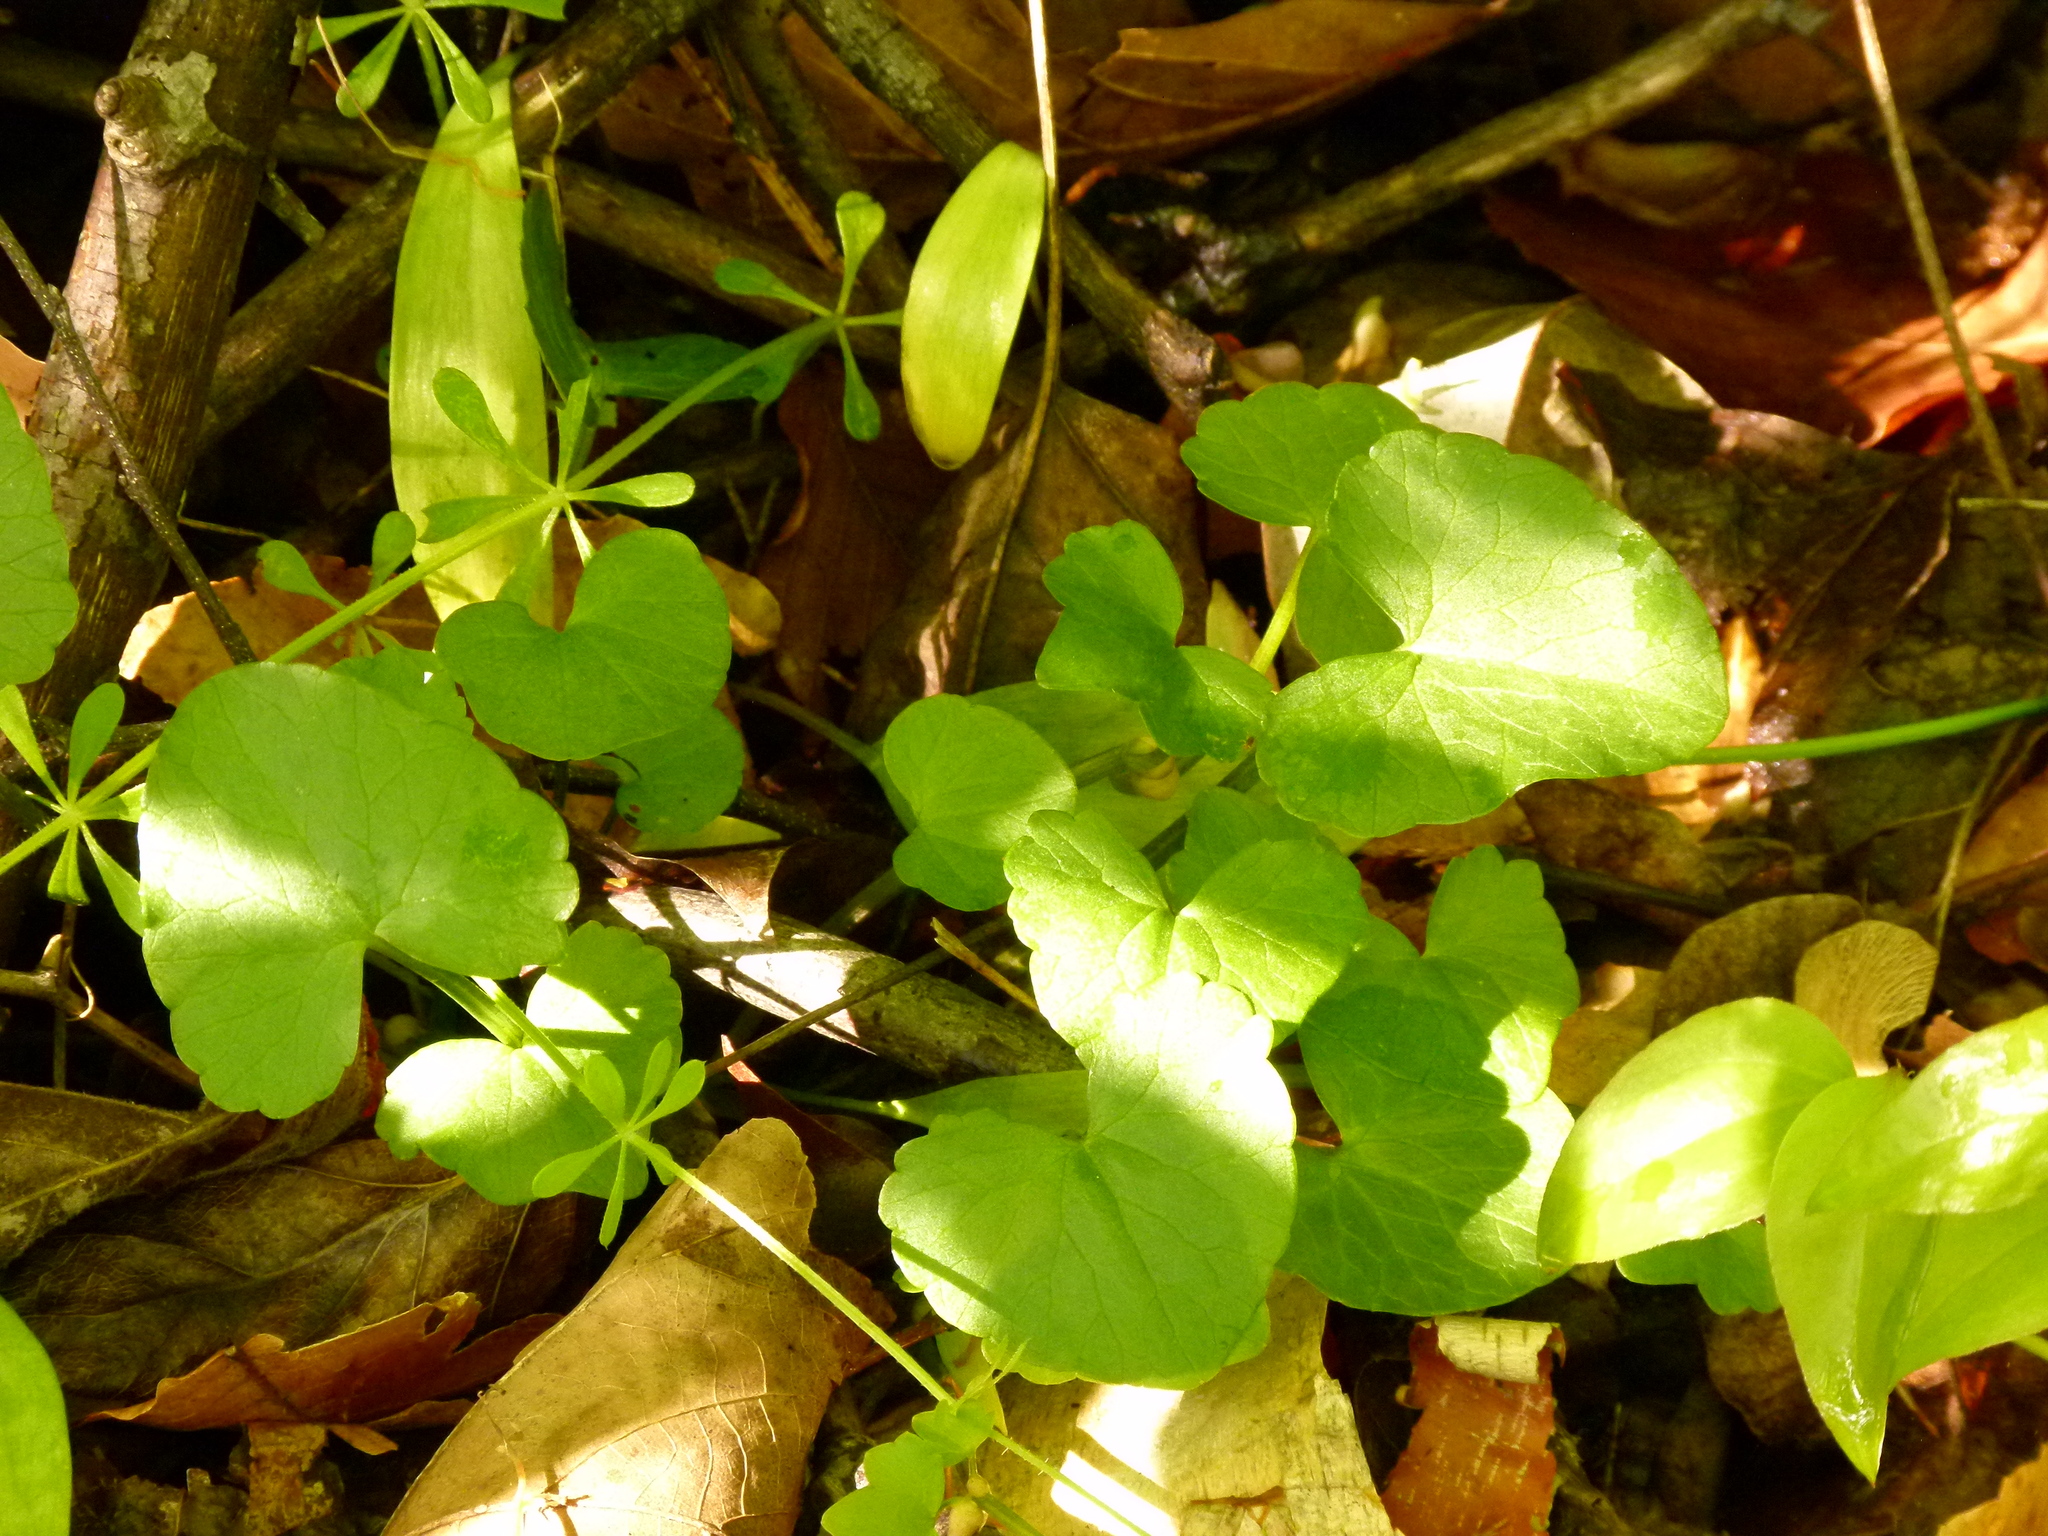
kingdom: Plantae
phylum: Tracheophyta
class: Magnoliopsida
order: Ranunculales
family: Ranunculaceae
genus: Ficaria
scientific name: Ficaria verna
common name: Lesser celandine
